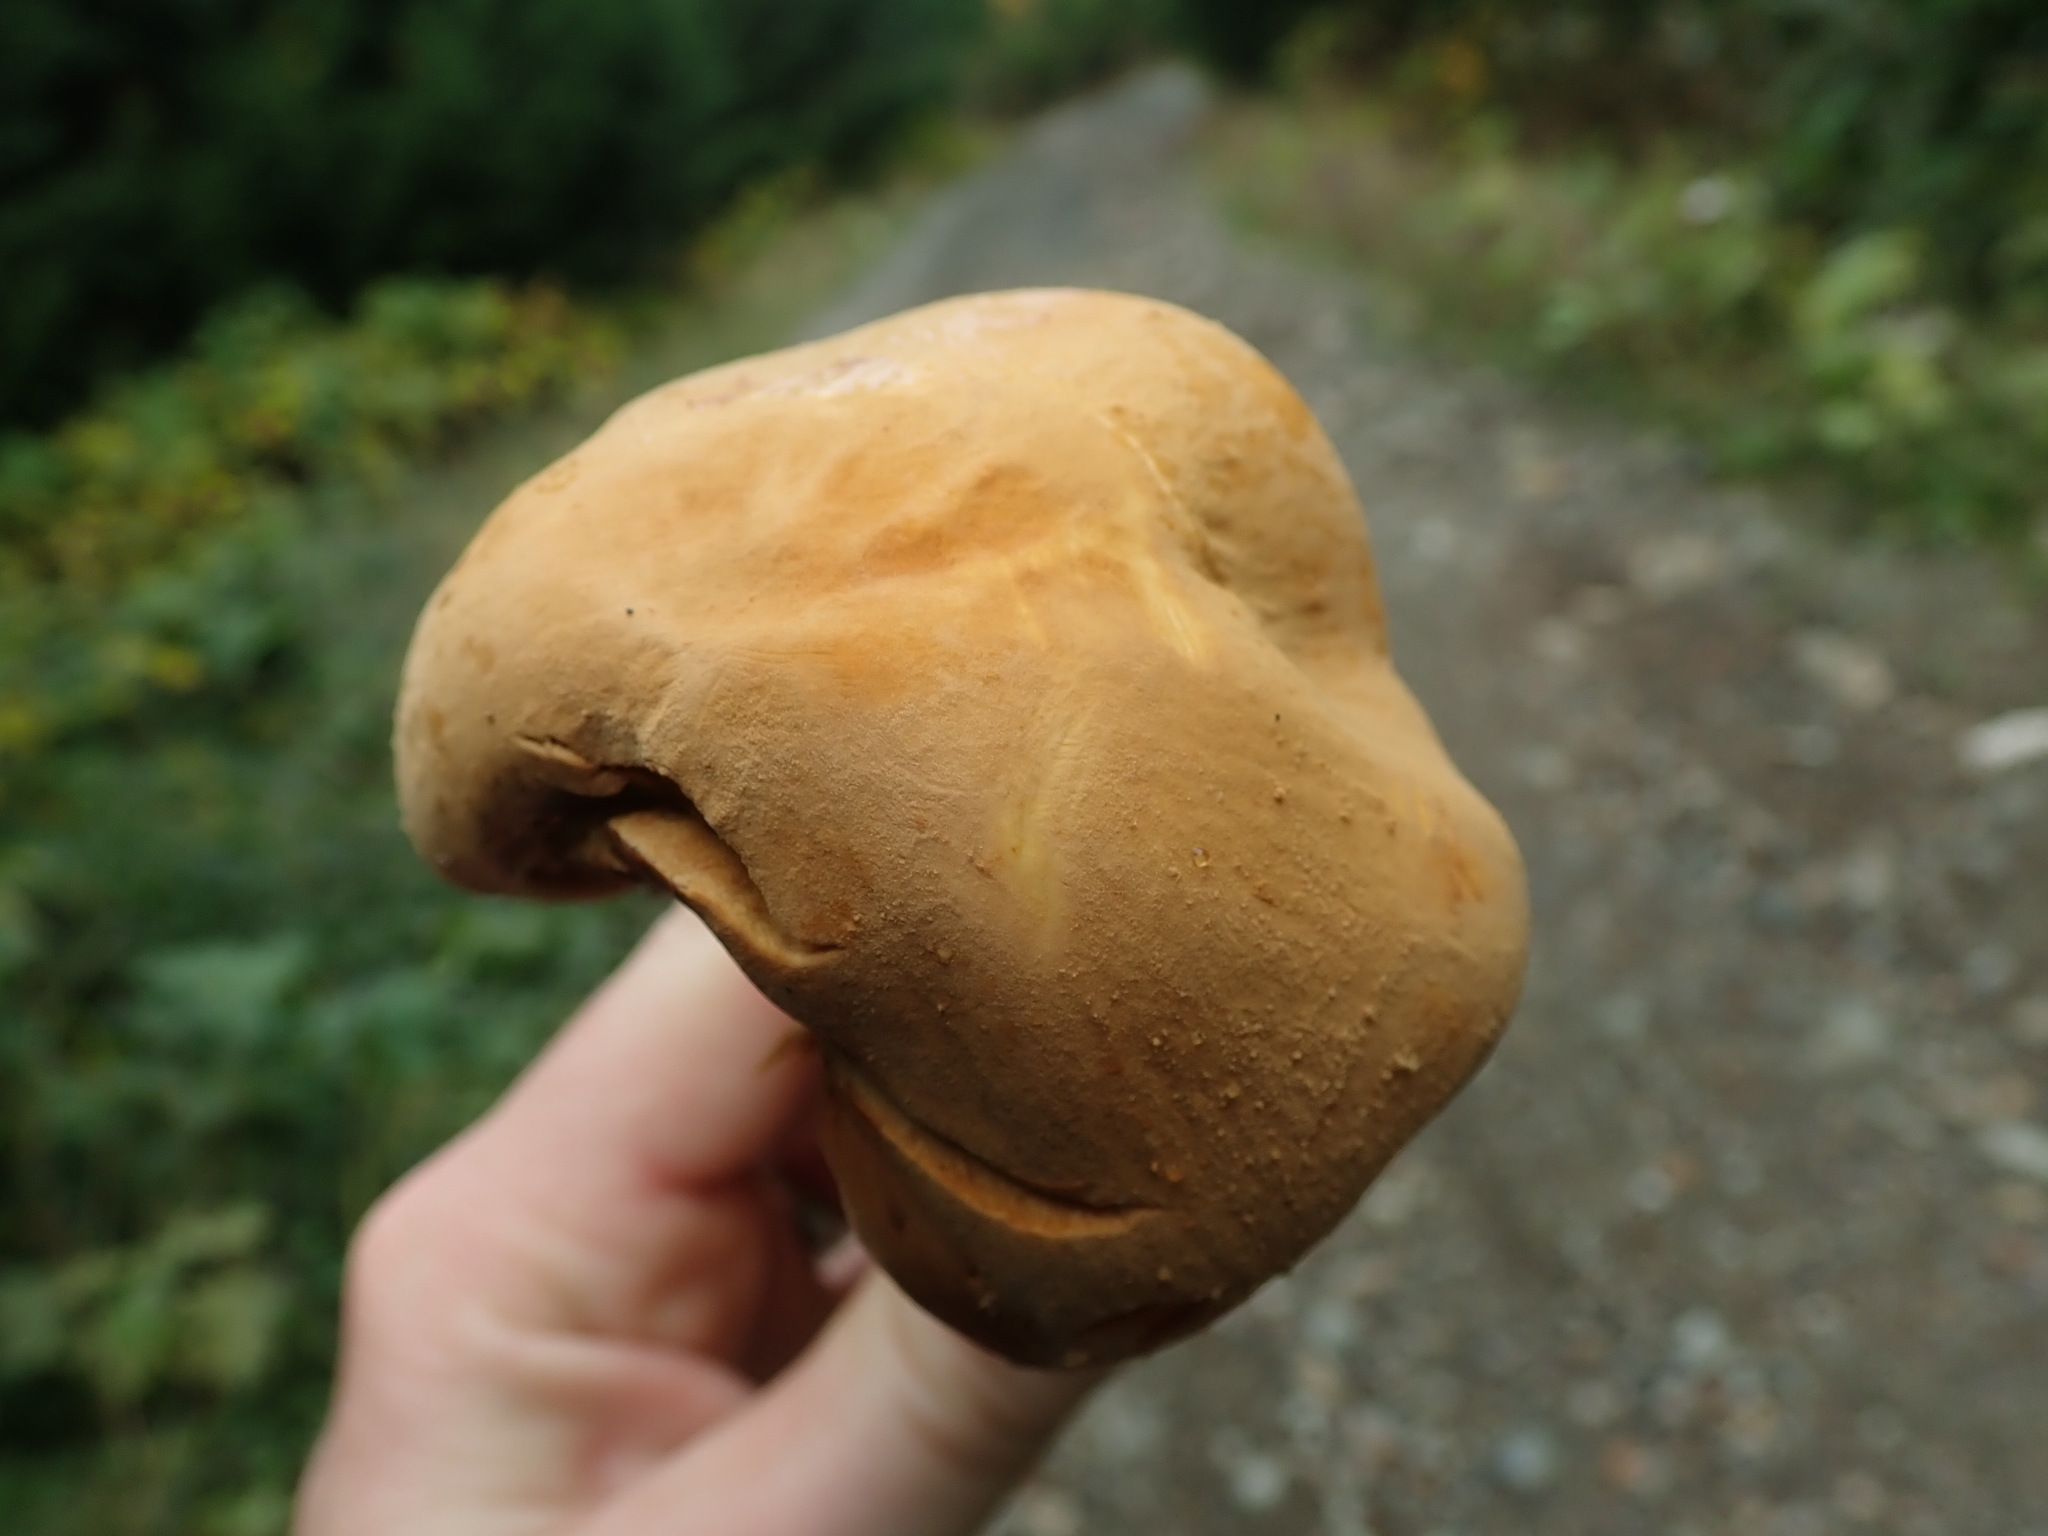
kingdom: Fungi
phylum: Basidiomycota
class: Agaricomycetes
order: Agaricales
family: Tricholomataceae
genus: Phaeolepiota
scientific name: Phaeolepiota aurea
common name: Golden bootleg
